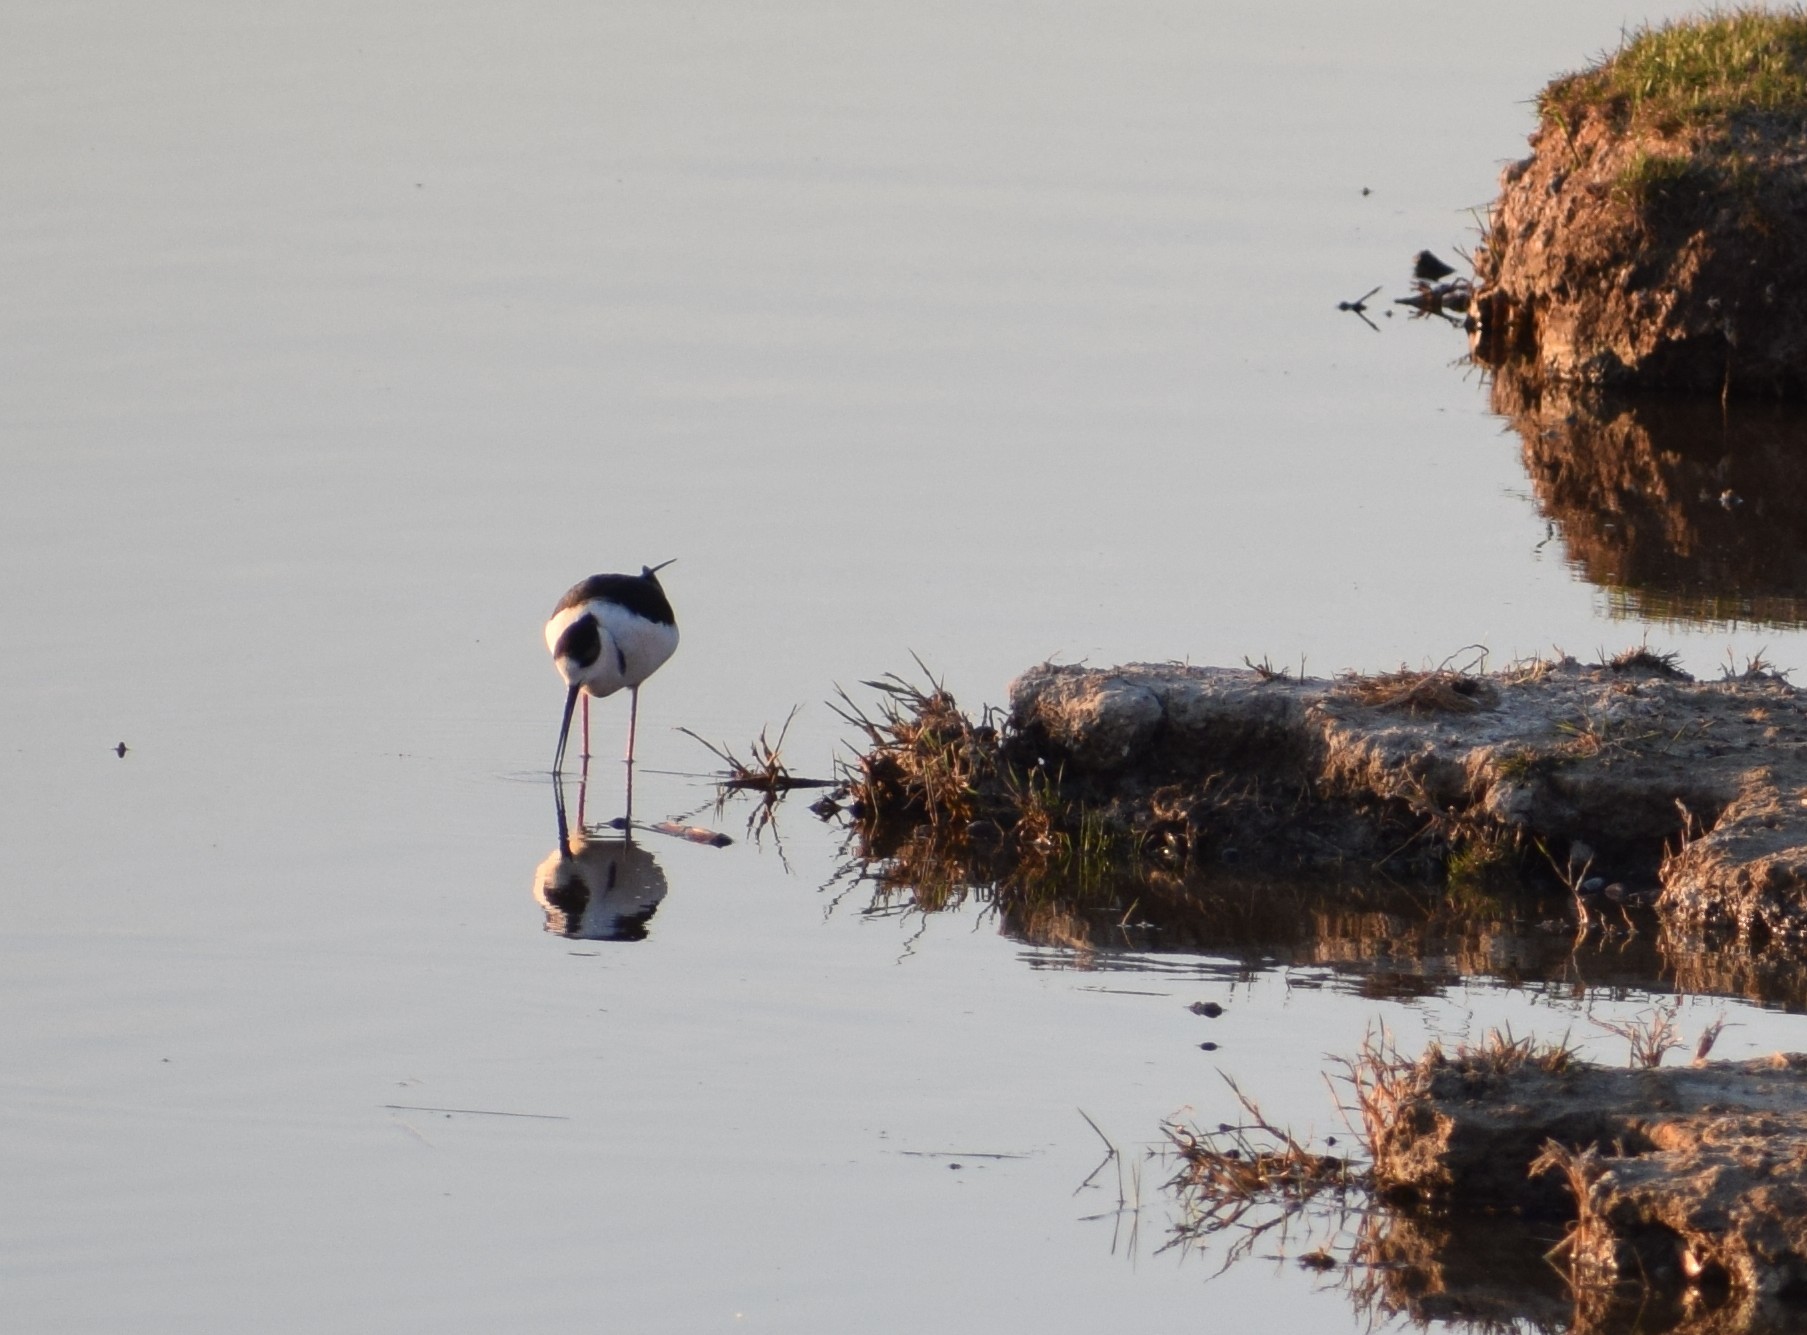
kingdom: Animalia
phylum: Chordata
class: Aves
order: Charadriiformes
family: Recurvirostridae
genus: Himantopus
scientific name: Himantopus himantopus
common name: Black-winged stilt
